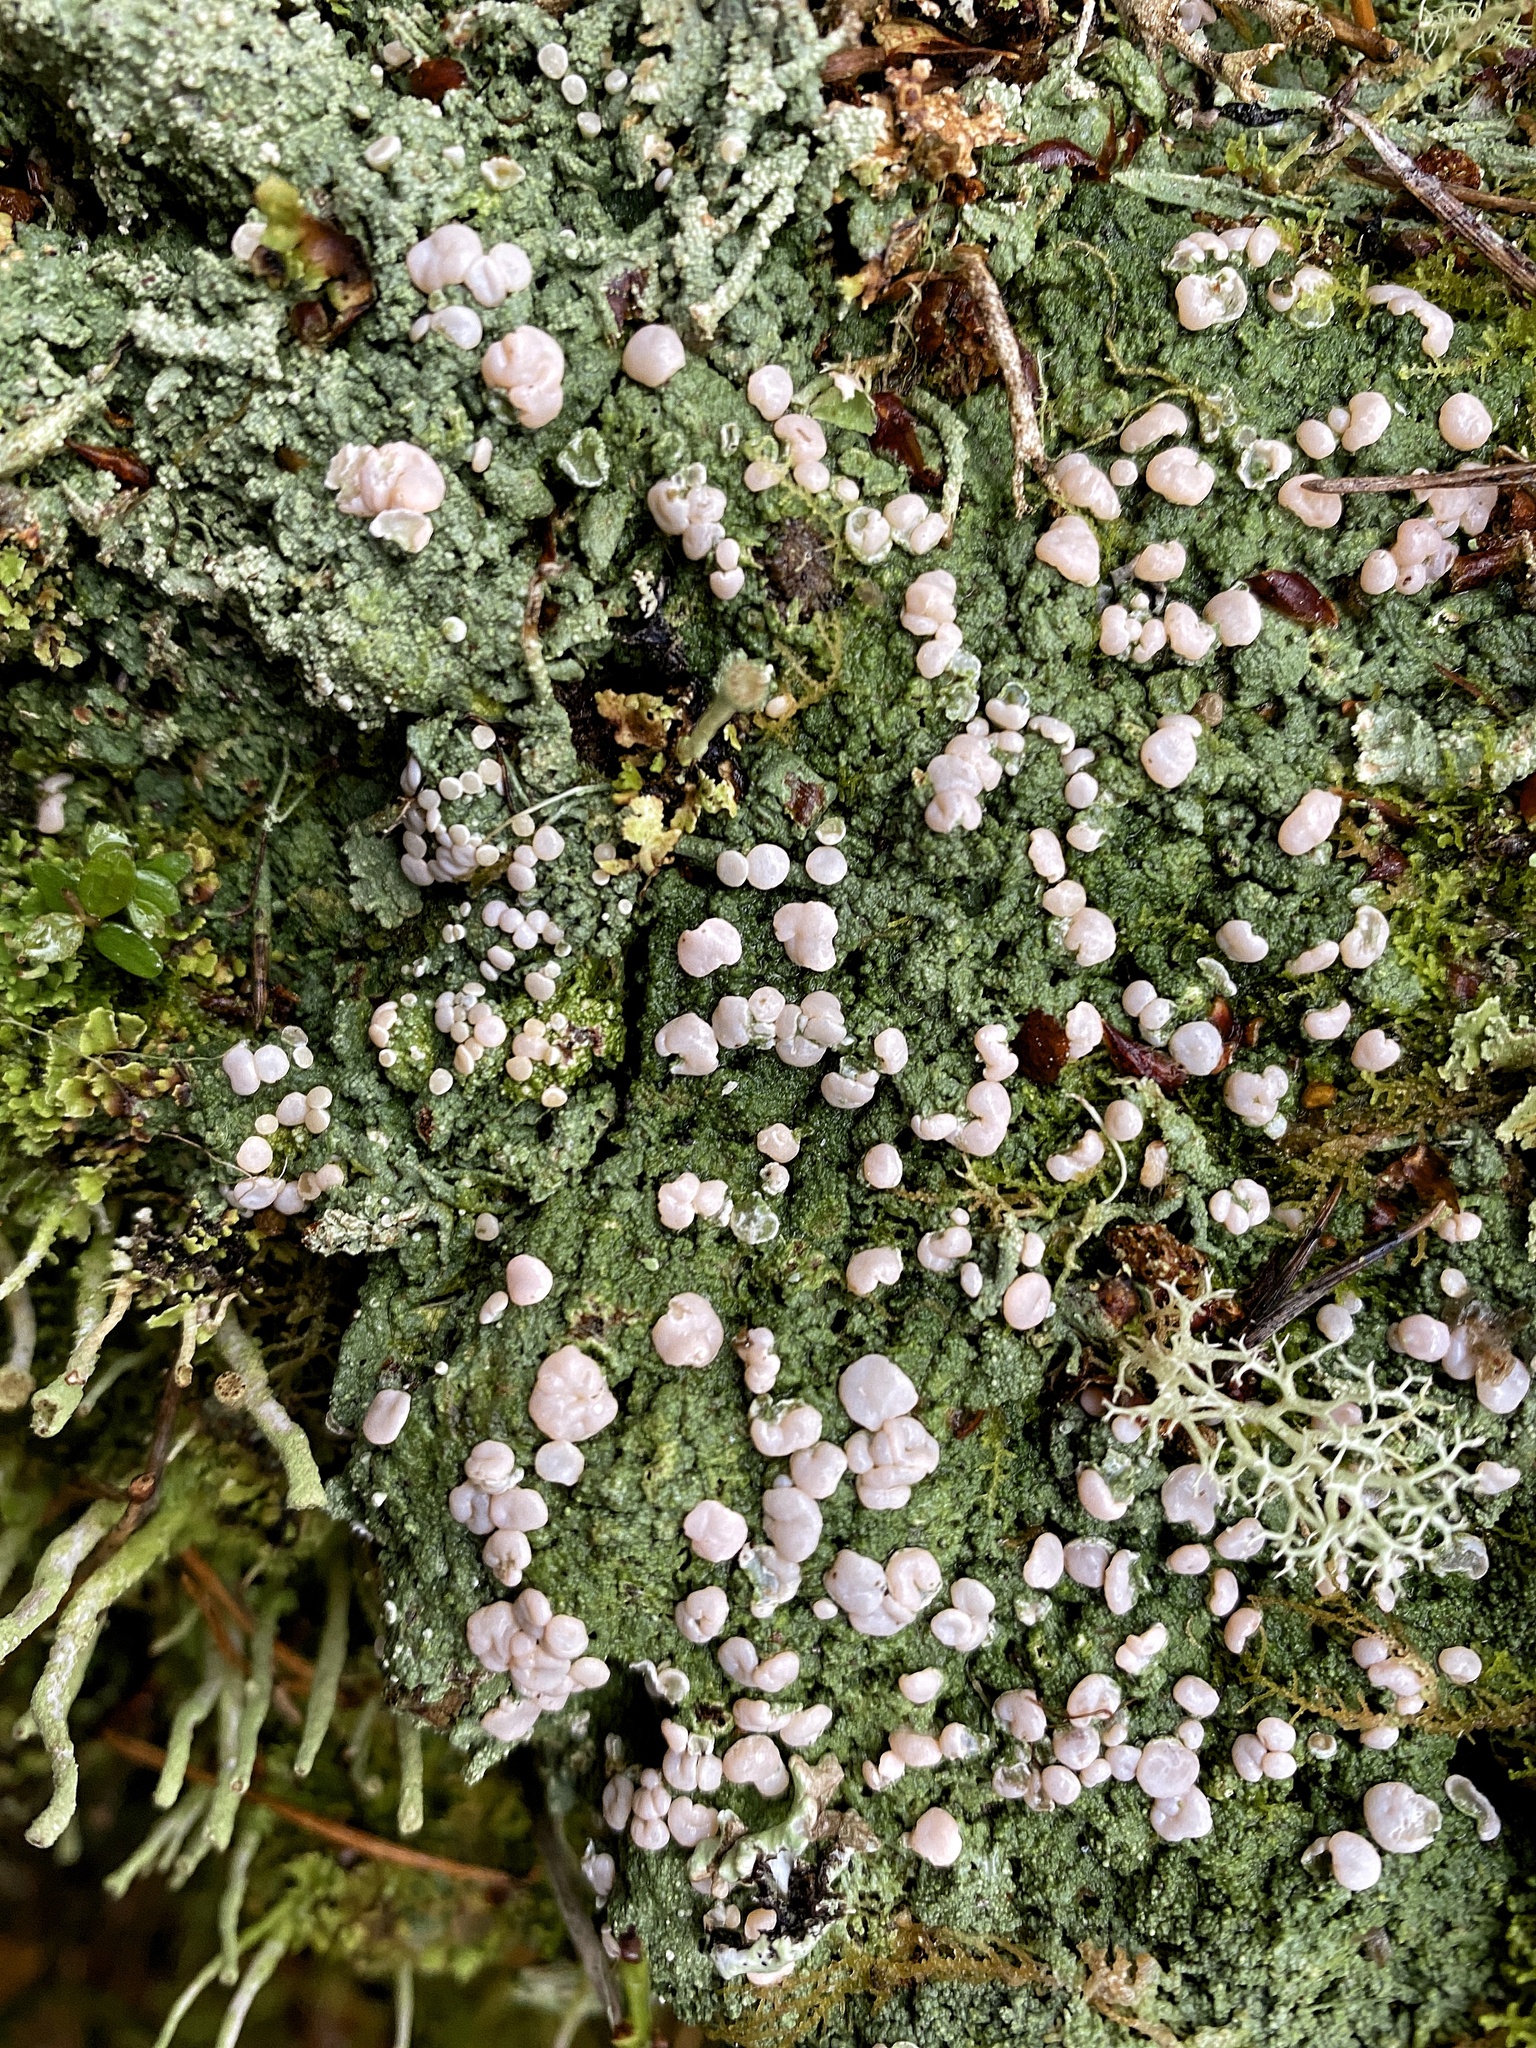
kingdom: Fungi
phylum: Ascomycota
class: Lecanoromycetes
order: Pertusariales
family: Icmadophilaceae
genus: Icmadophila
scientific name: Icmadophila ericetorum
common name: Candy lichen
